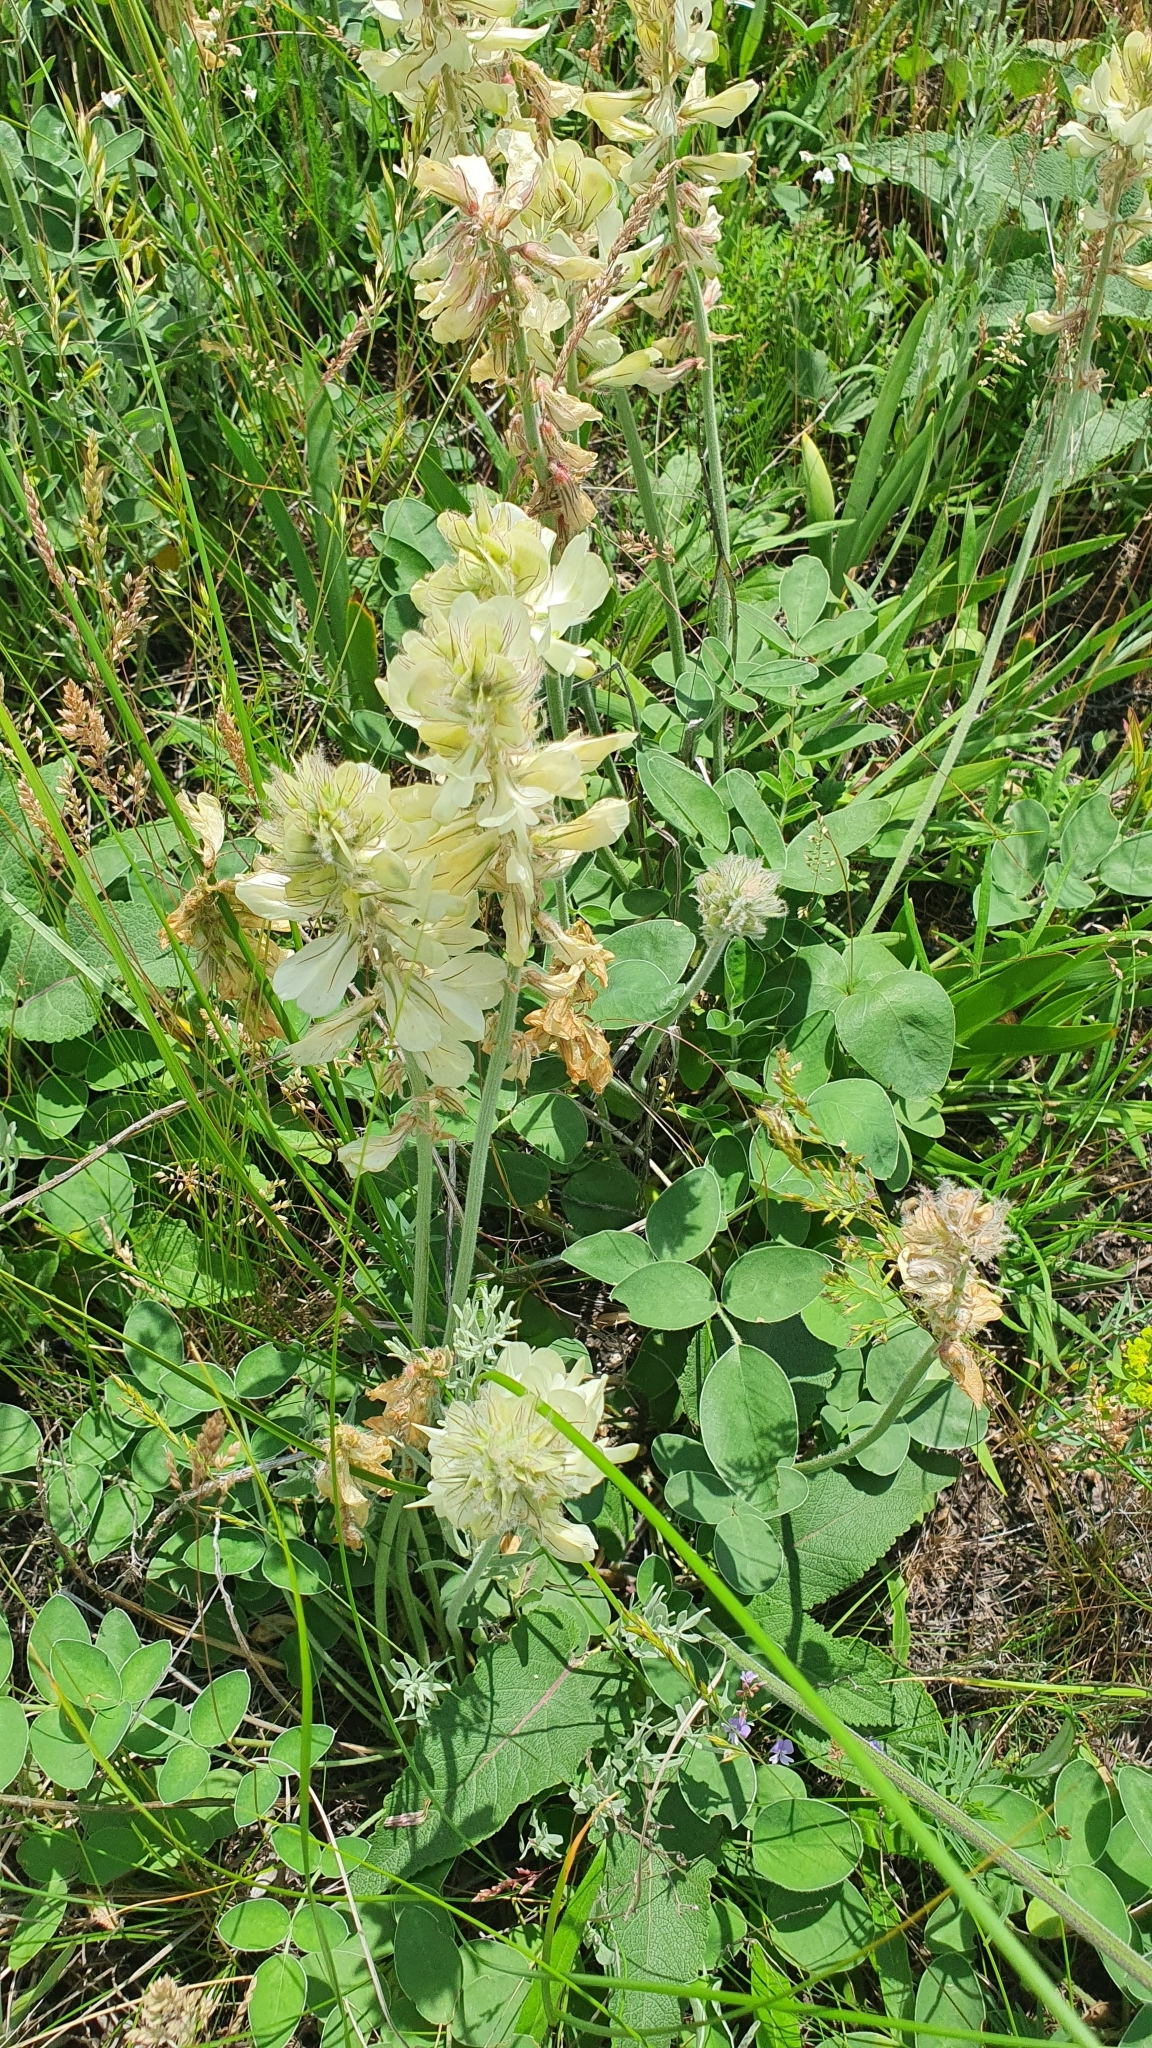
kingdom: Plantae
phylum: Tracheophyta
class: Magnoliopsida
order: Fabales
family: Fabaceae
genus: Hedysarum
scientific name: Hedysarum grandiflorum
